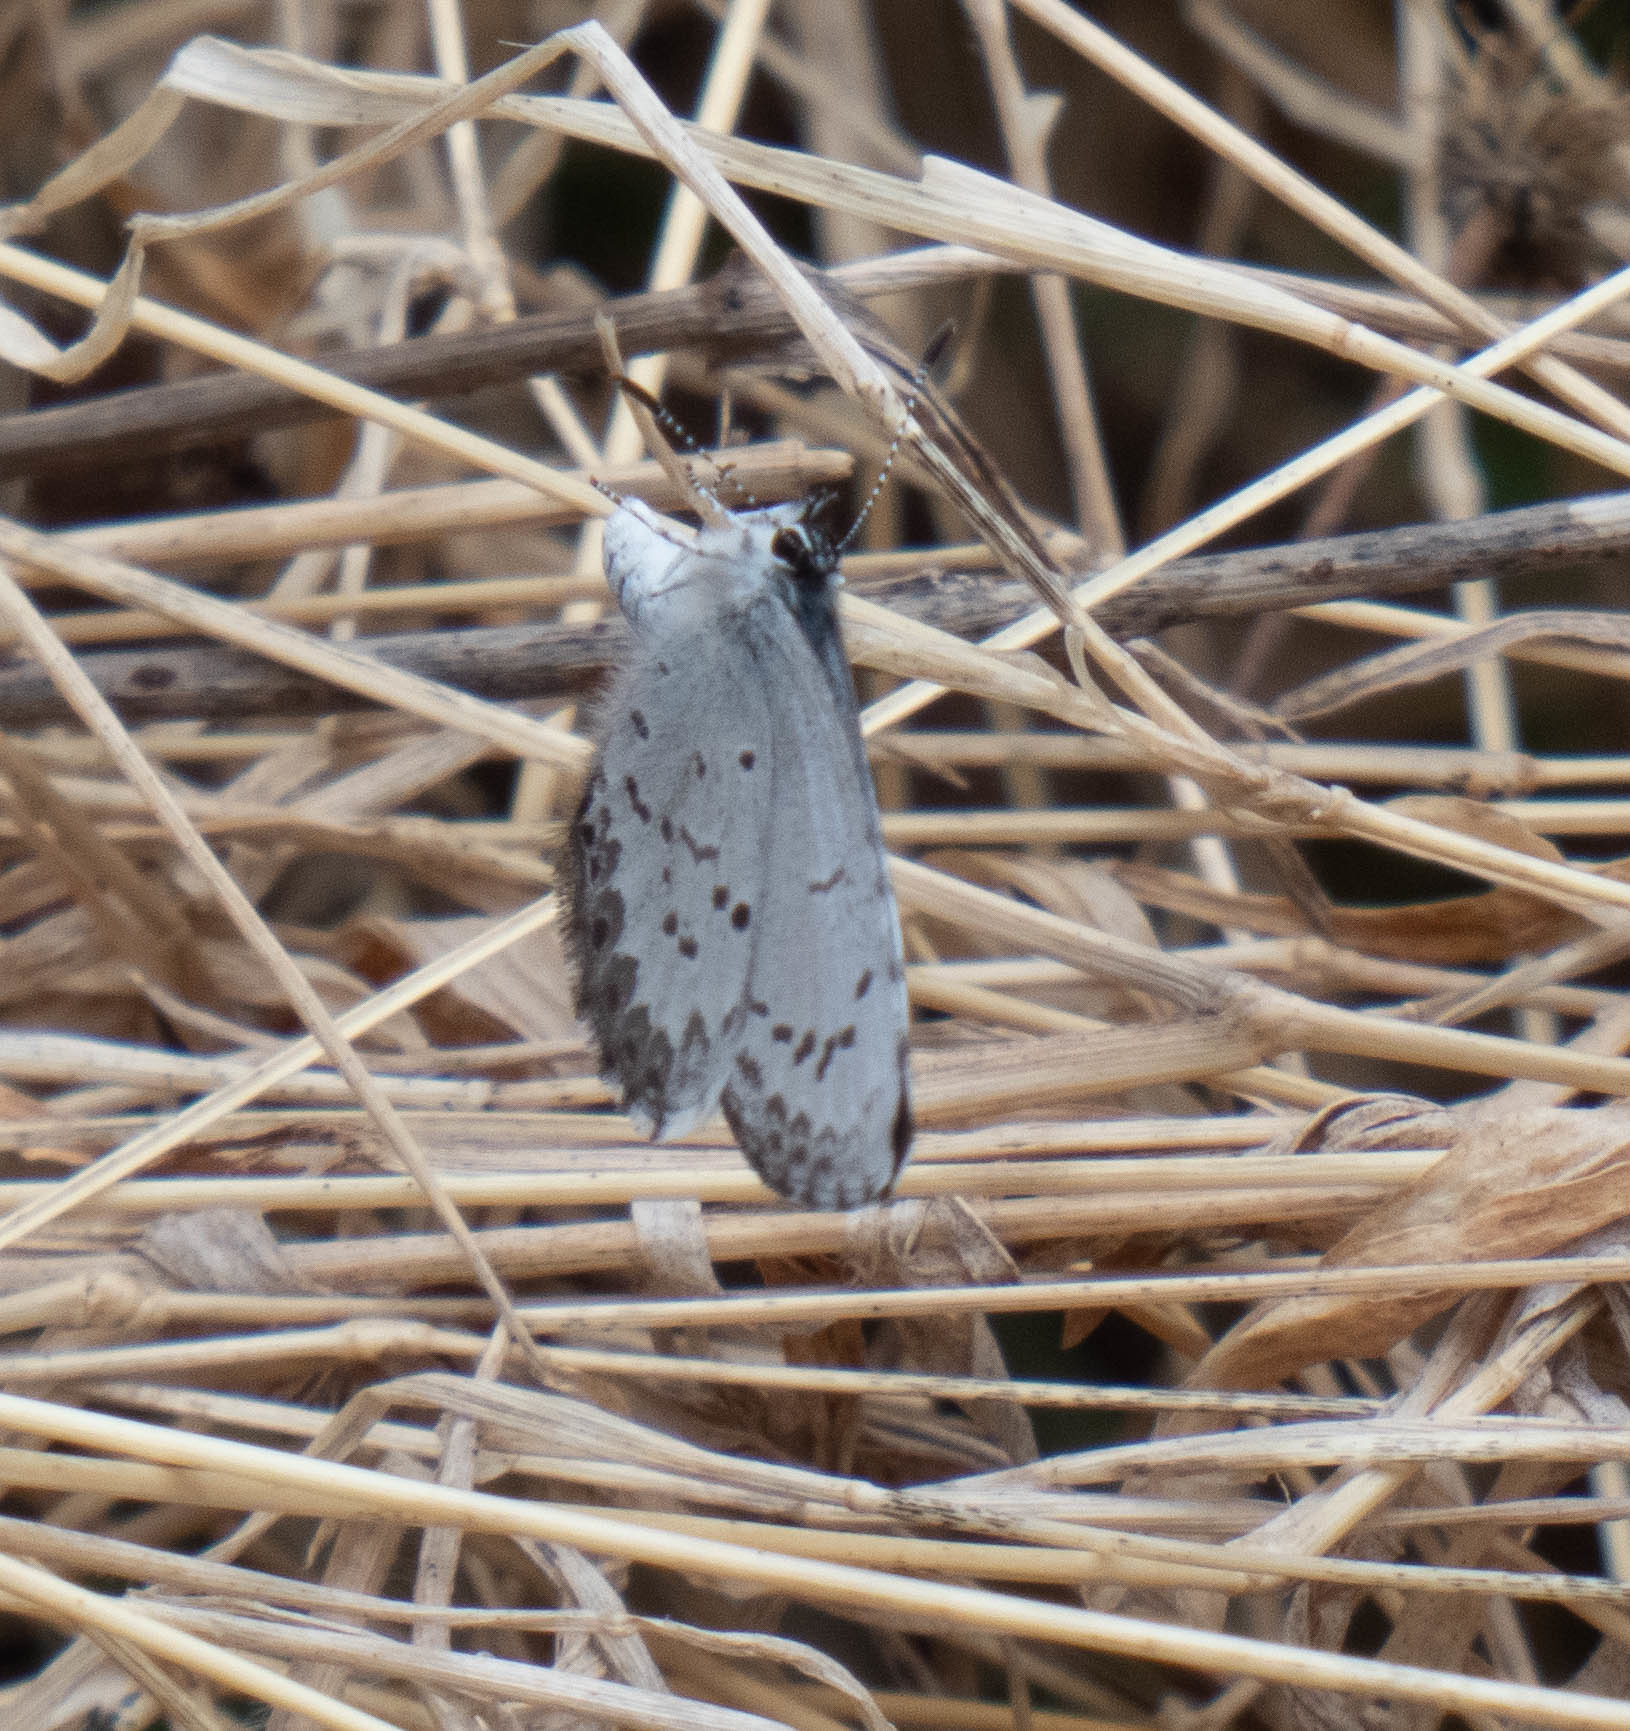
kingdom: Animalia
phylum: Arthropoda
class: Insecta
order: Lepidoptera
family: Lycaenidae
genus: Celastrina
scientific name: Celastrina
